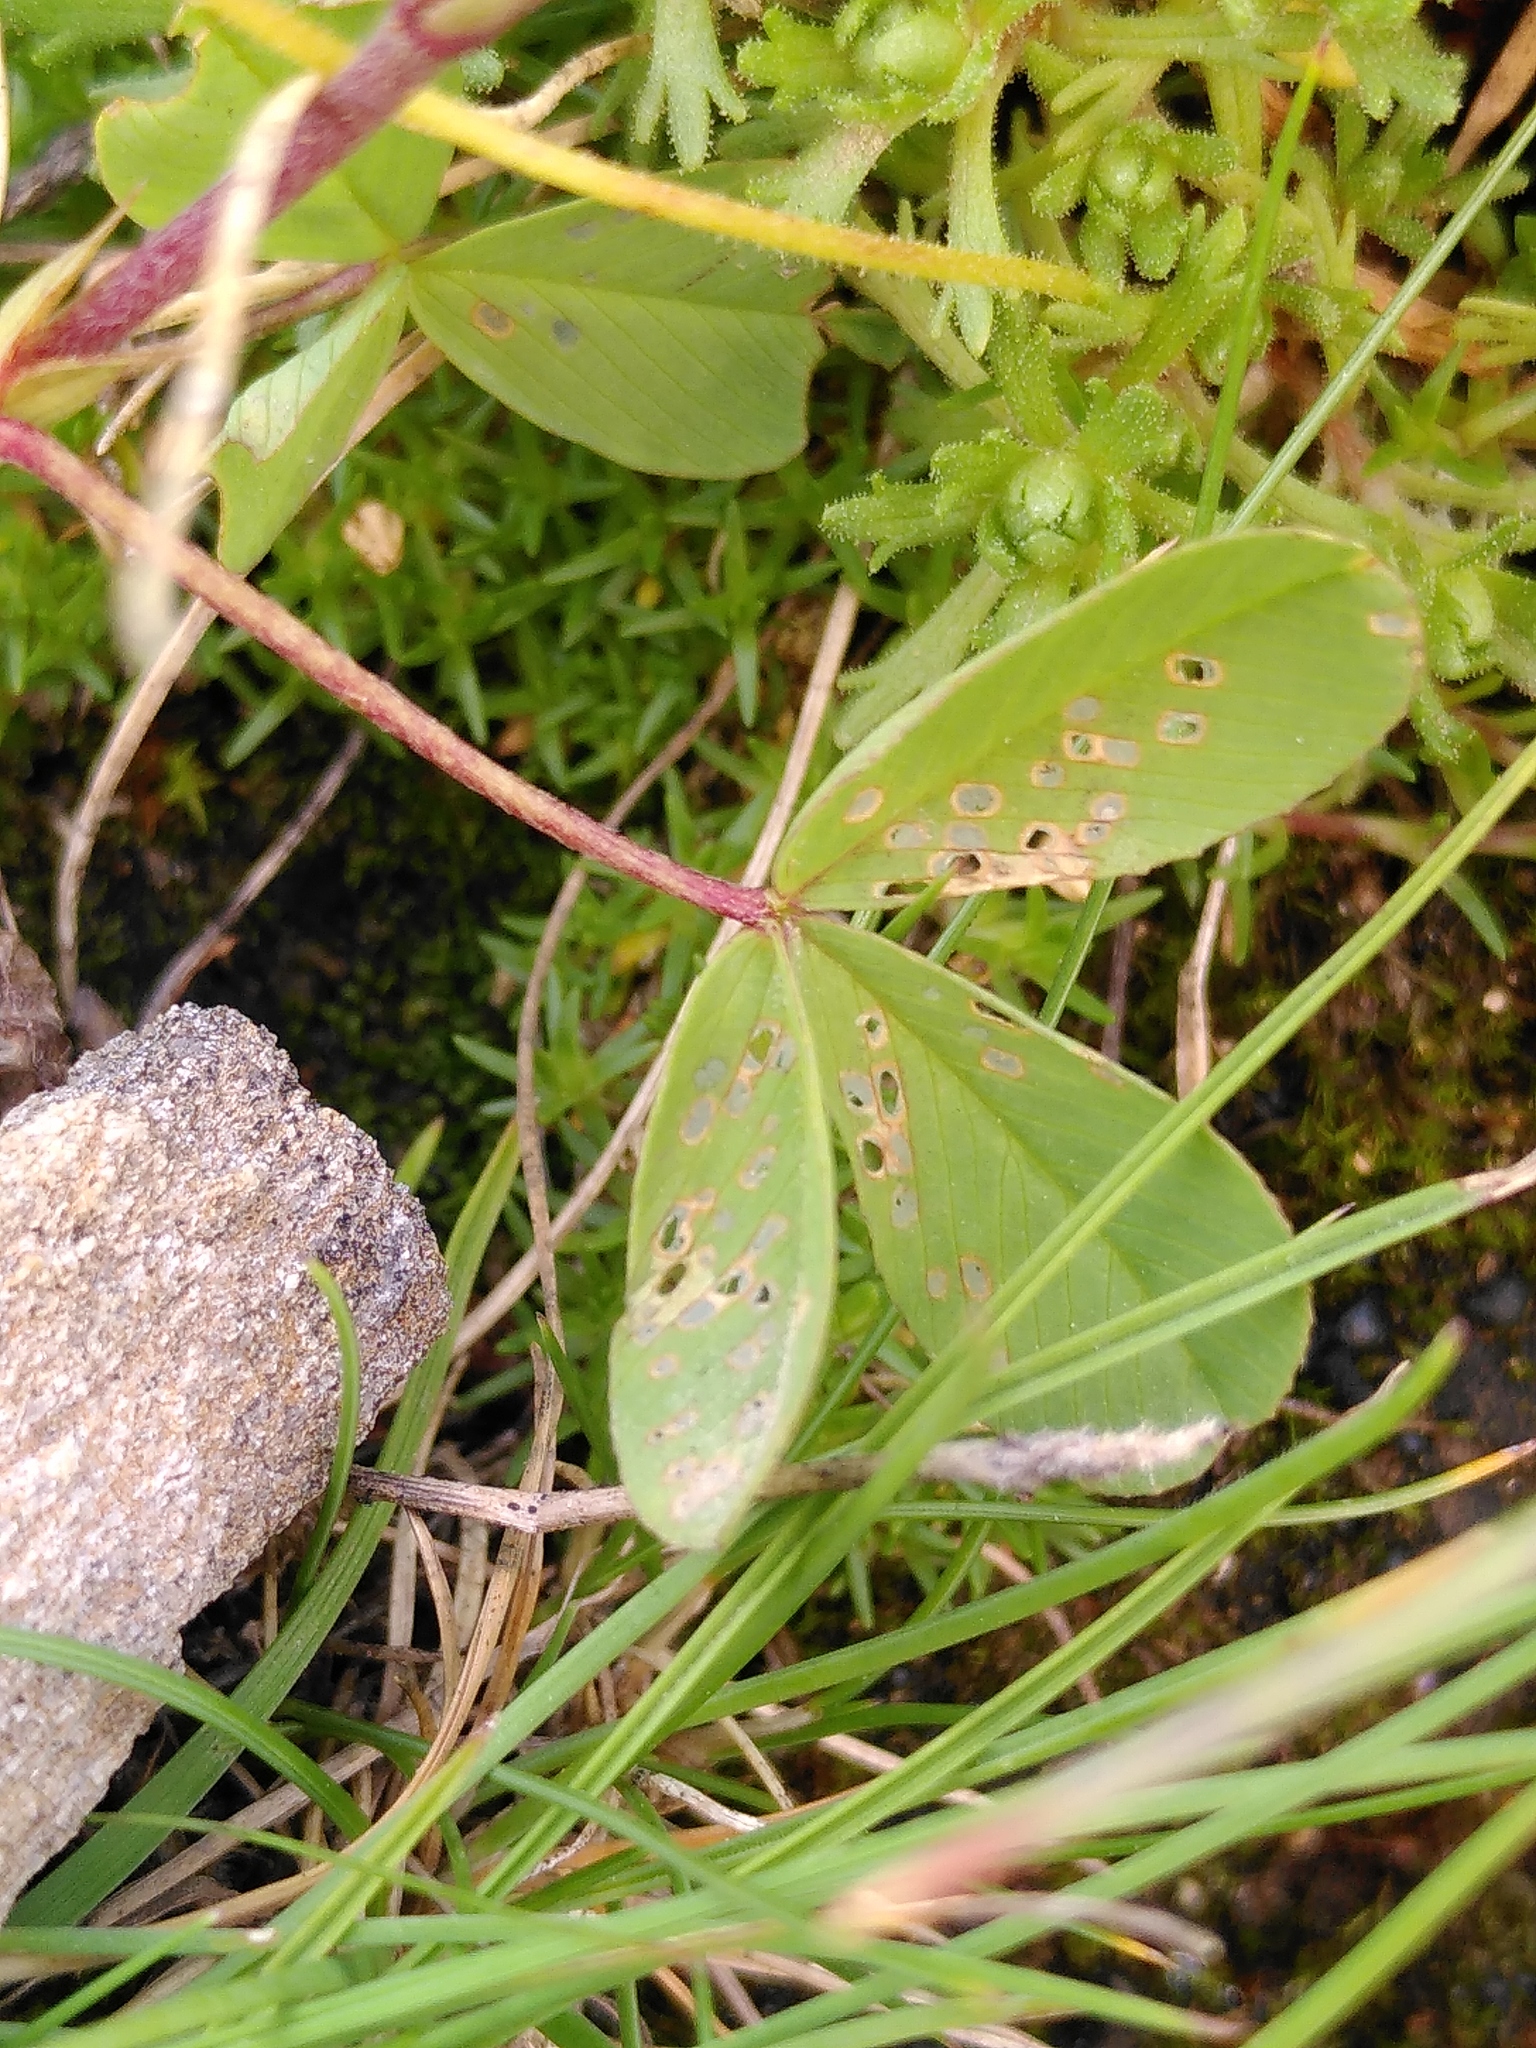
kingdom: Plantae
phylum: Tracheophyta
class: Magnoliopsida
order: Fabales
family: Fabaceae
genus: Trifolium
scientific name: Trifolium badium
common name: Brown clover
